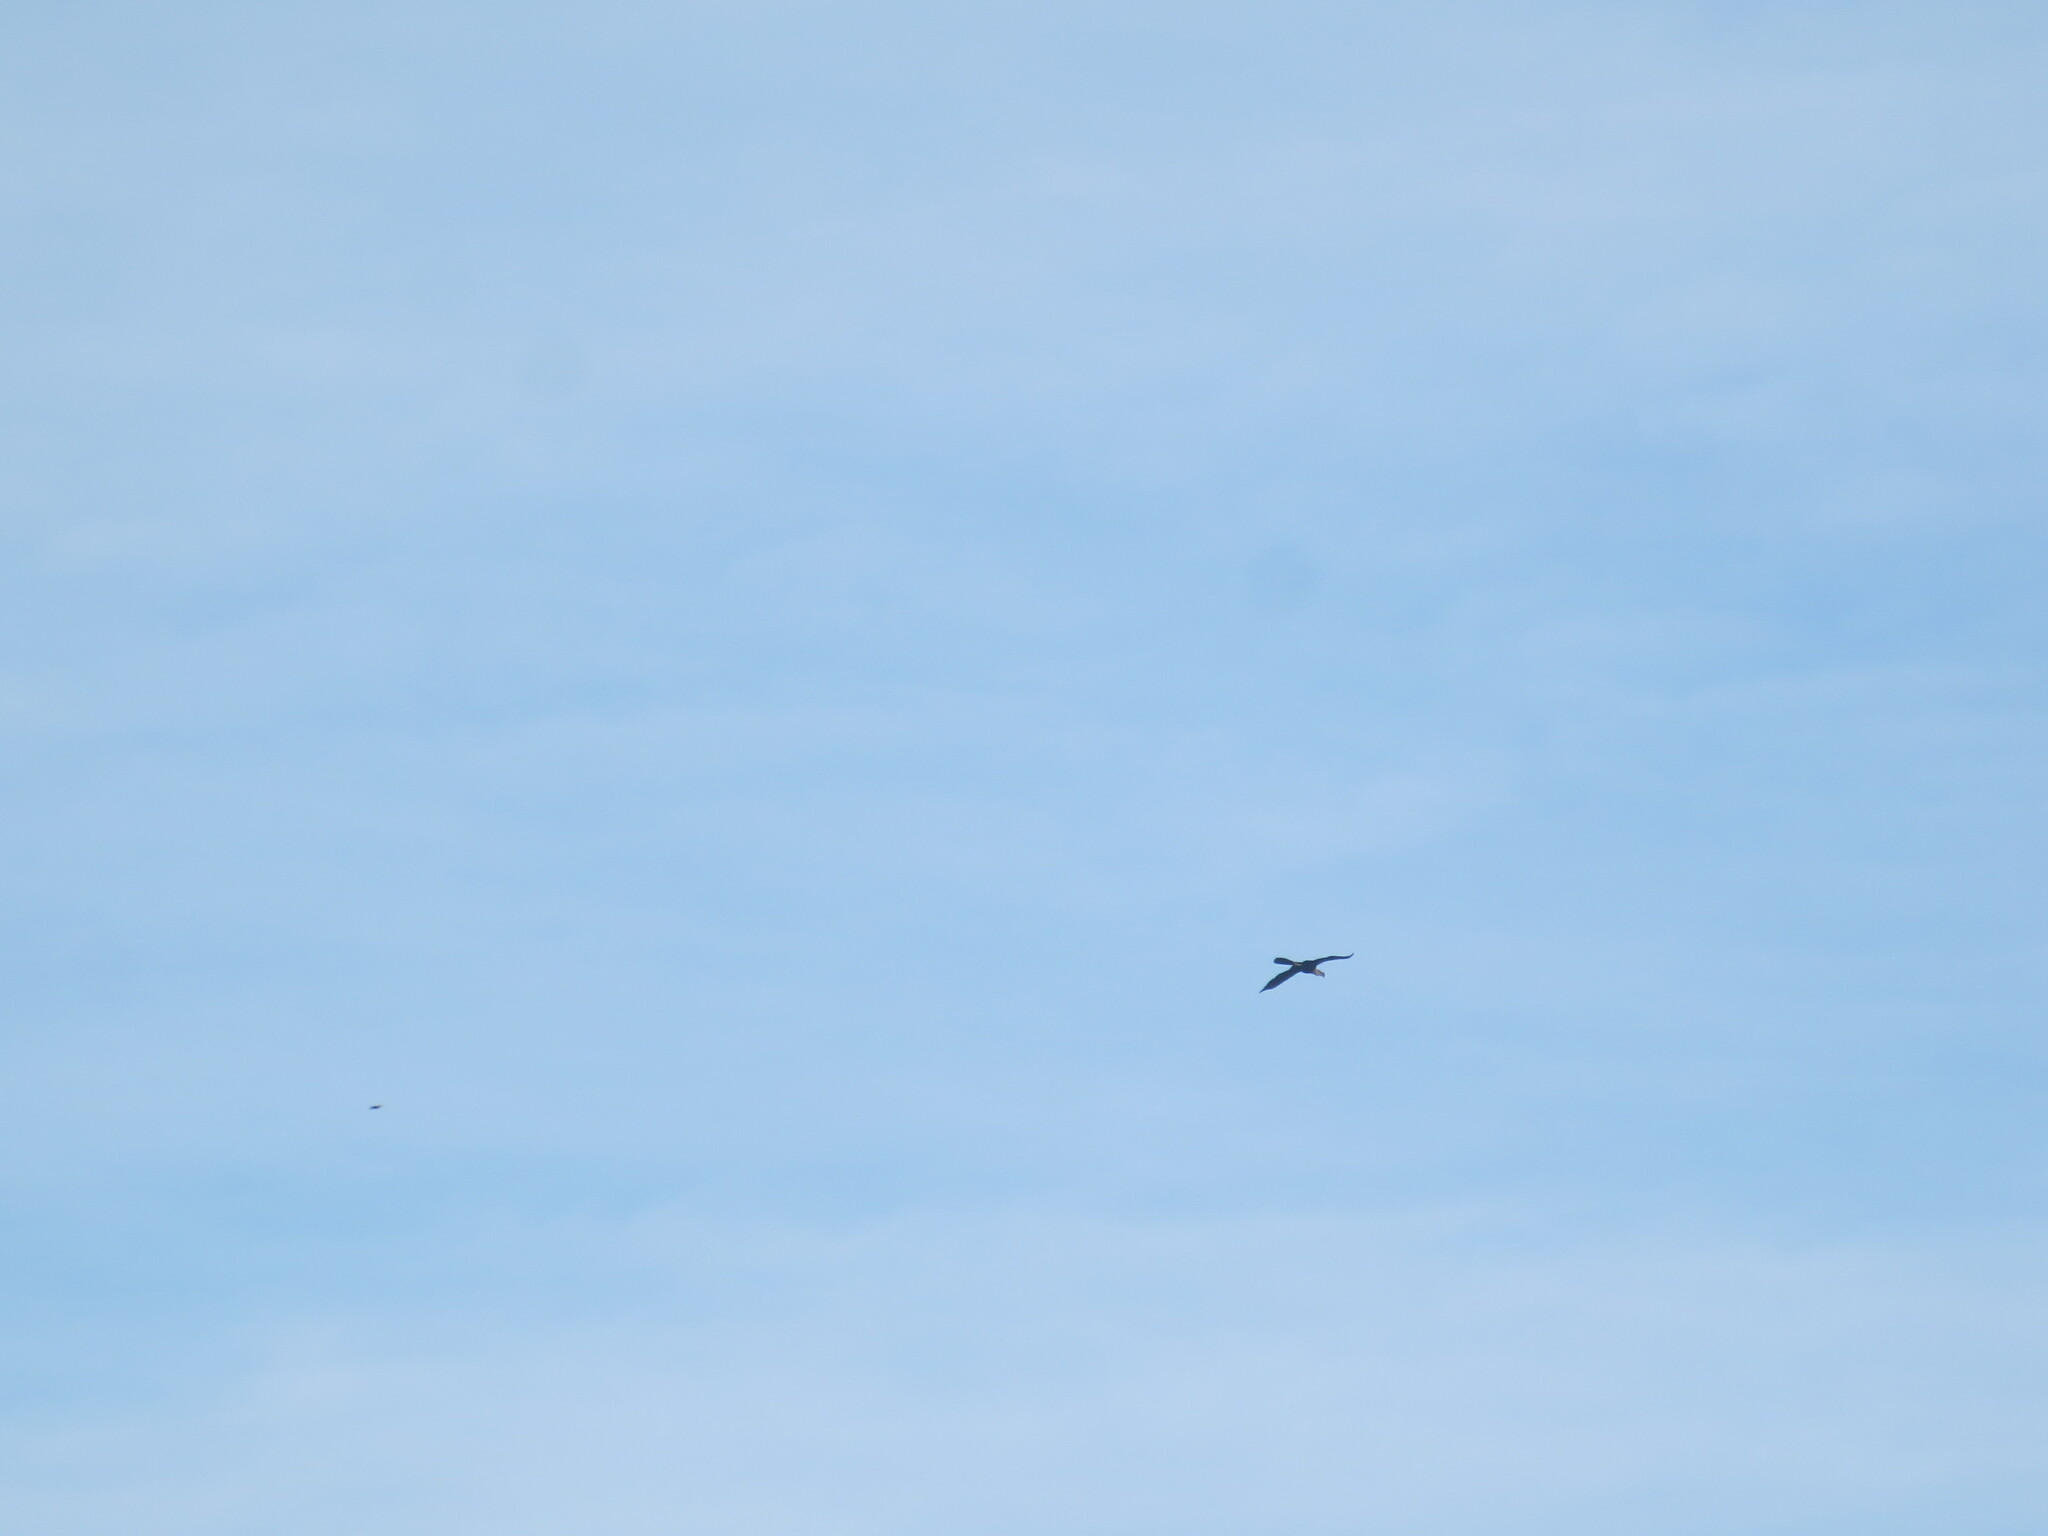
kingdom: Animalia
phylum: Chordata
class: Aves
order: Suliformes
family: Anhingidae
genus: Anhinga
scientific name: Anhinga anhinga
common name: Anhinga
